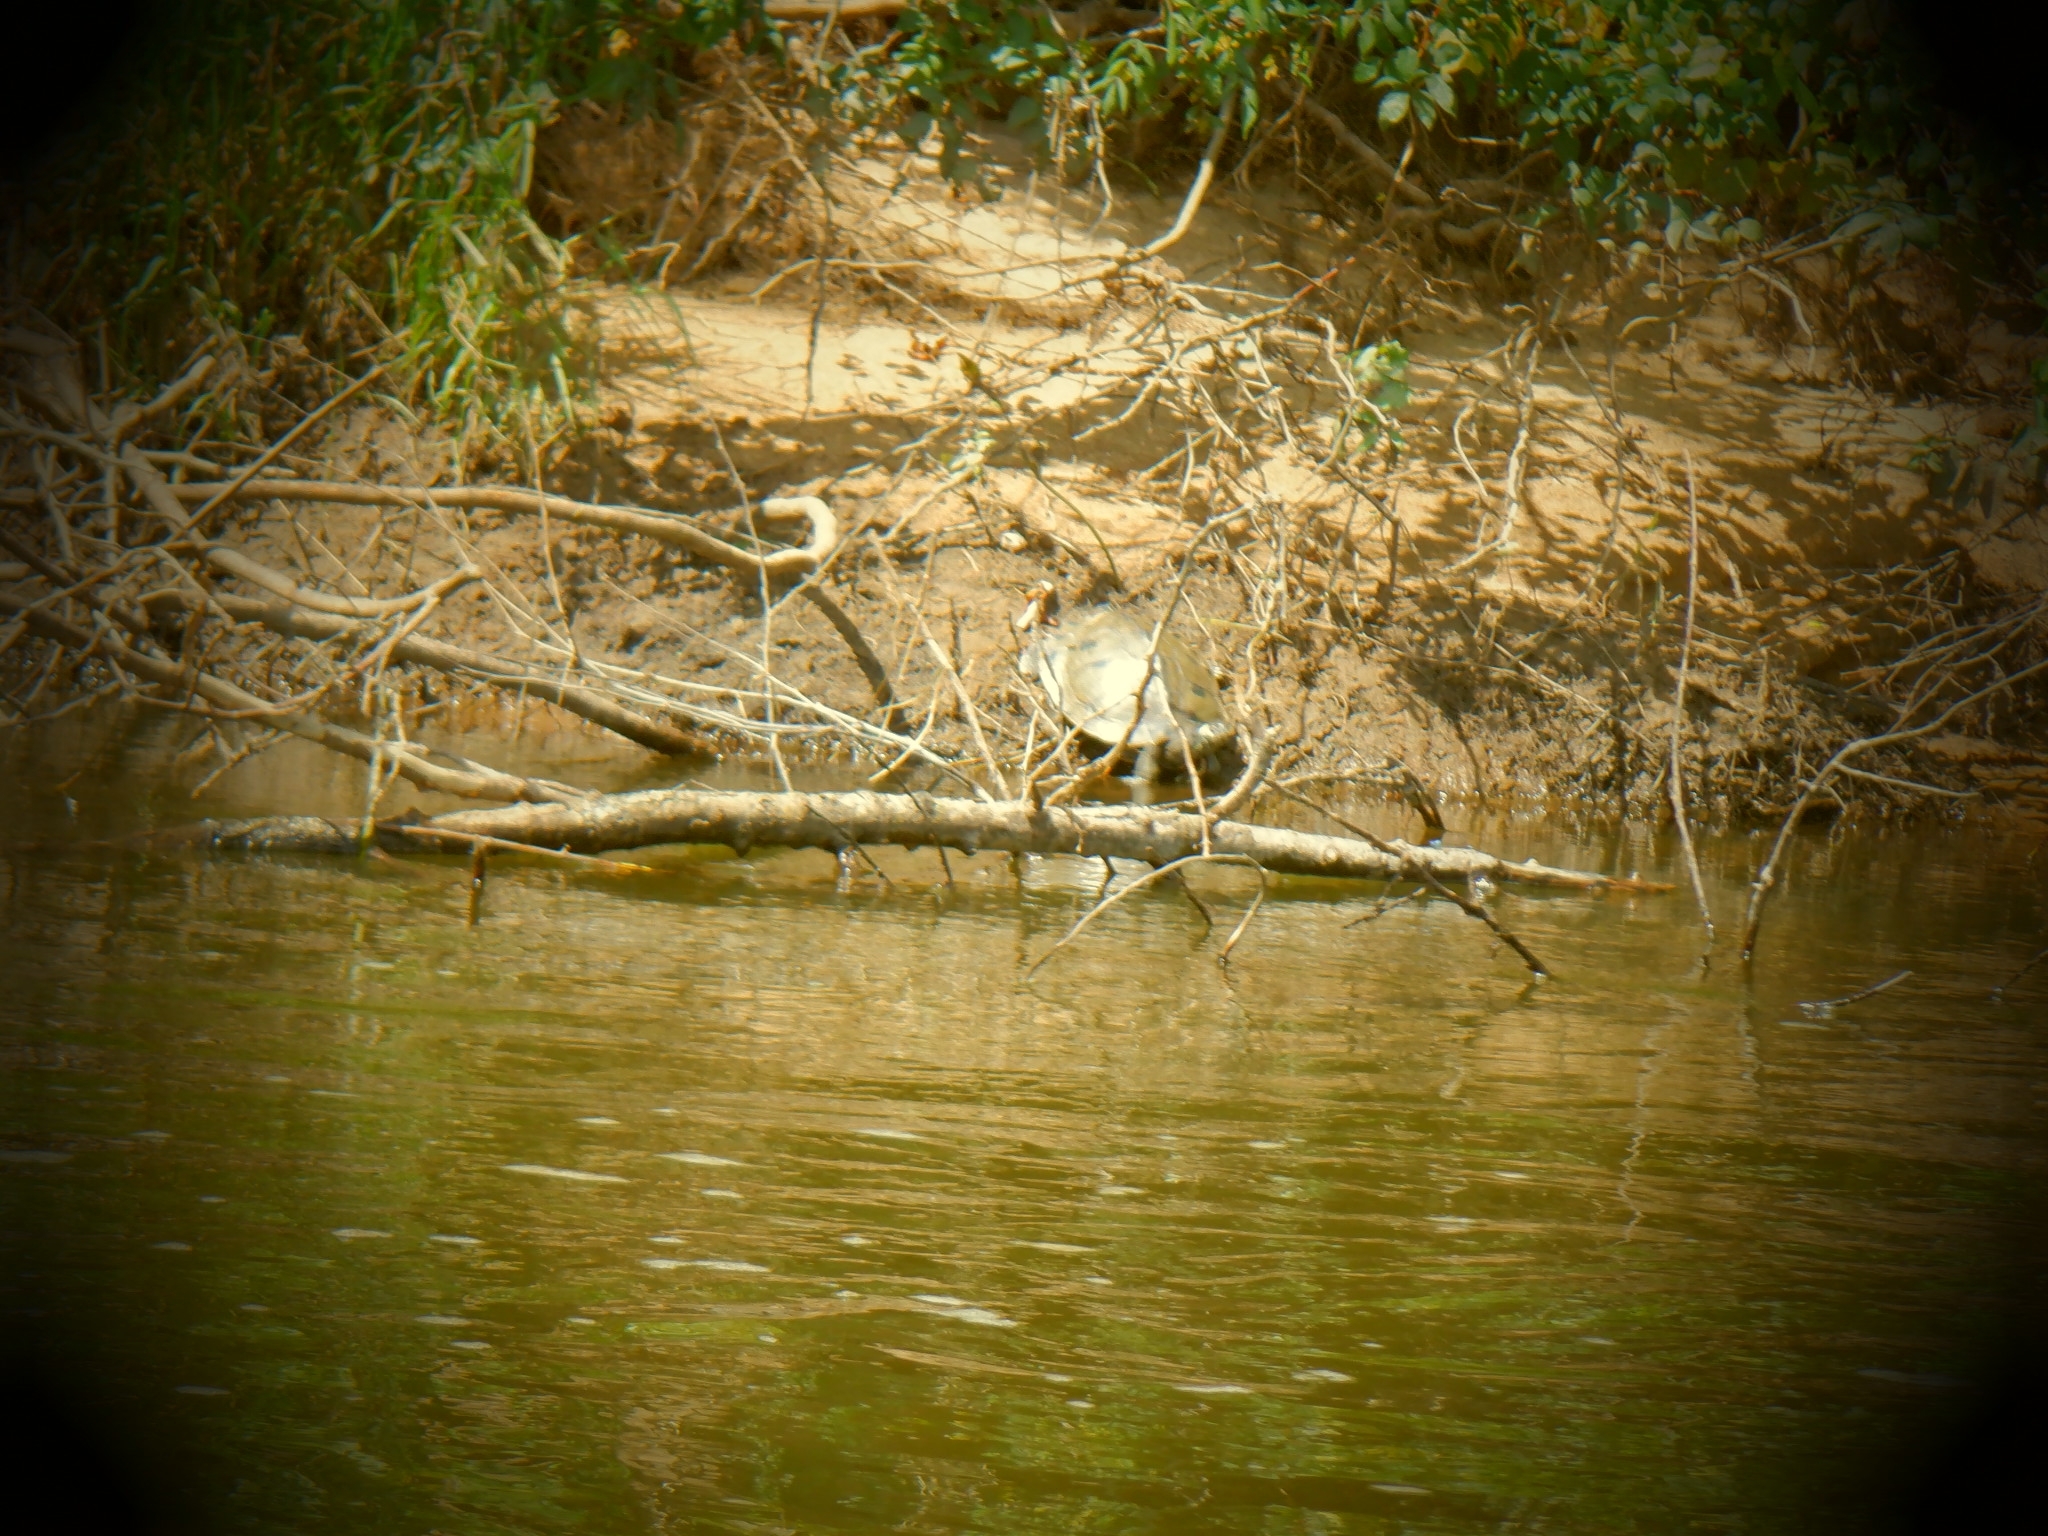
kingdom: Animalia
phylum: Chordata
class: Testudines
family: Emydidae
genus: Graptemys
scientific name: Graptemys ouachitensis
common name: Ouachita map turtle
